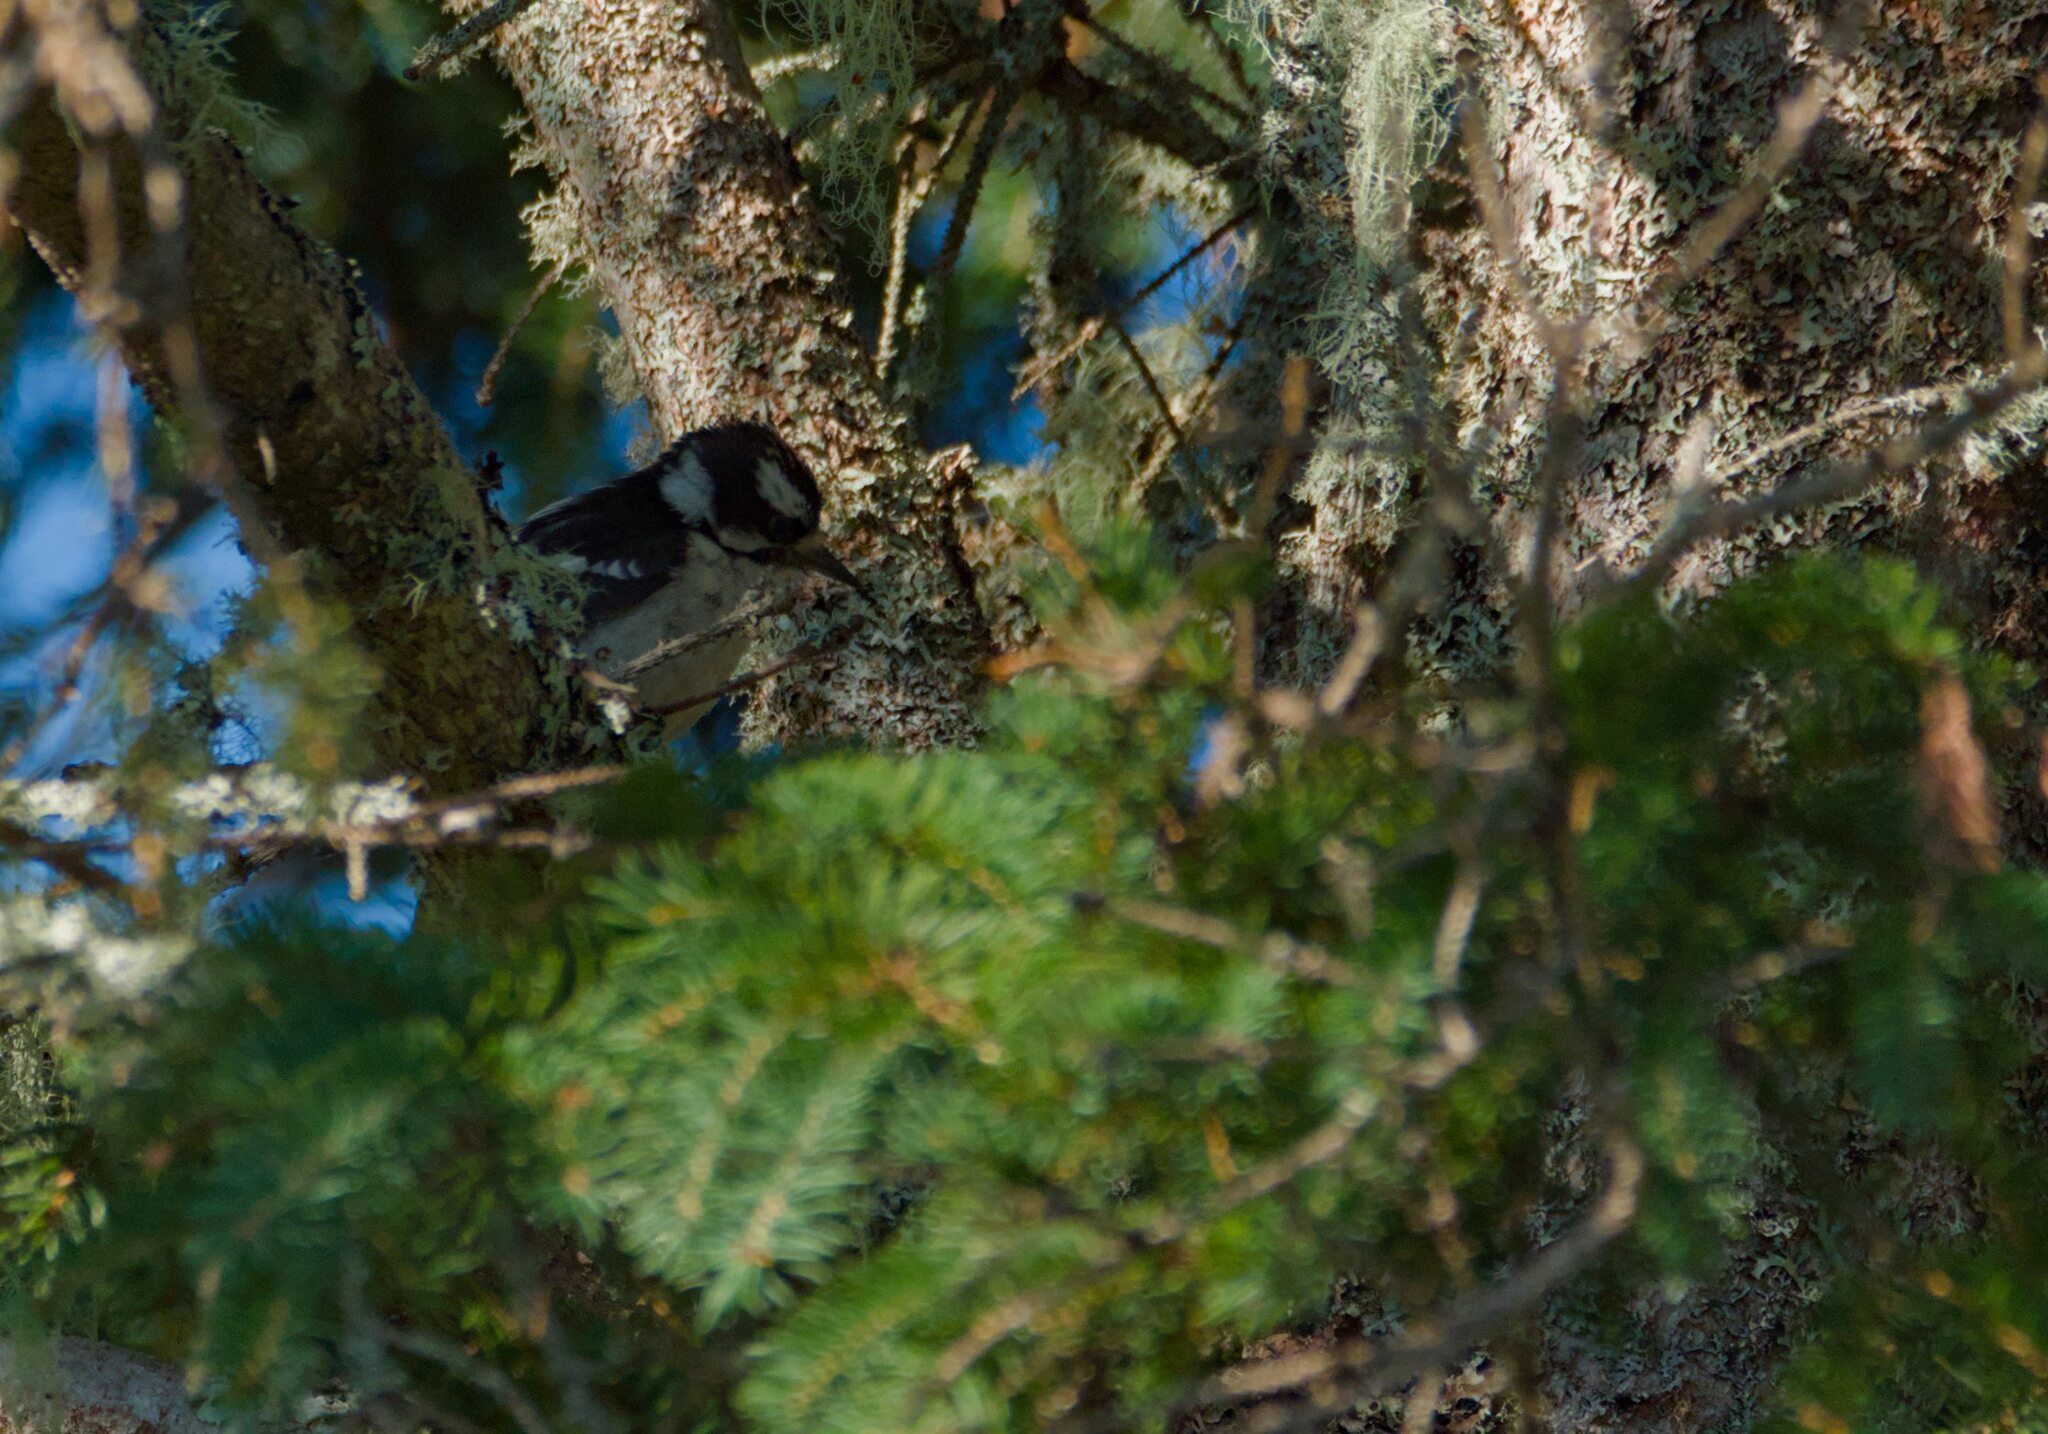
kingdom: Animalia
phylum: Chordata
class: Aves
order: Piciformes
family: Picidae
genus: Dryobates
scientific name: Dryobates pubescens
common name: Downy woodpecker
